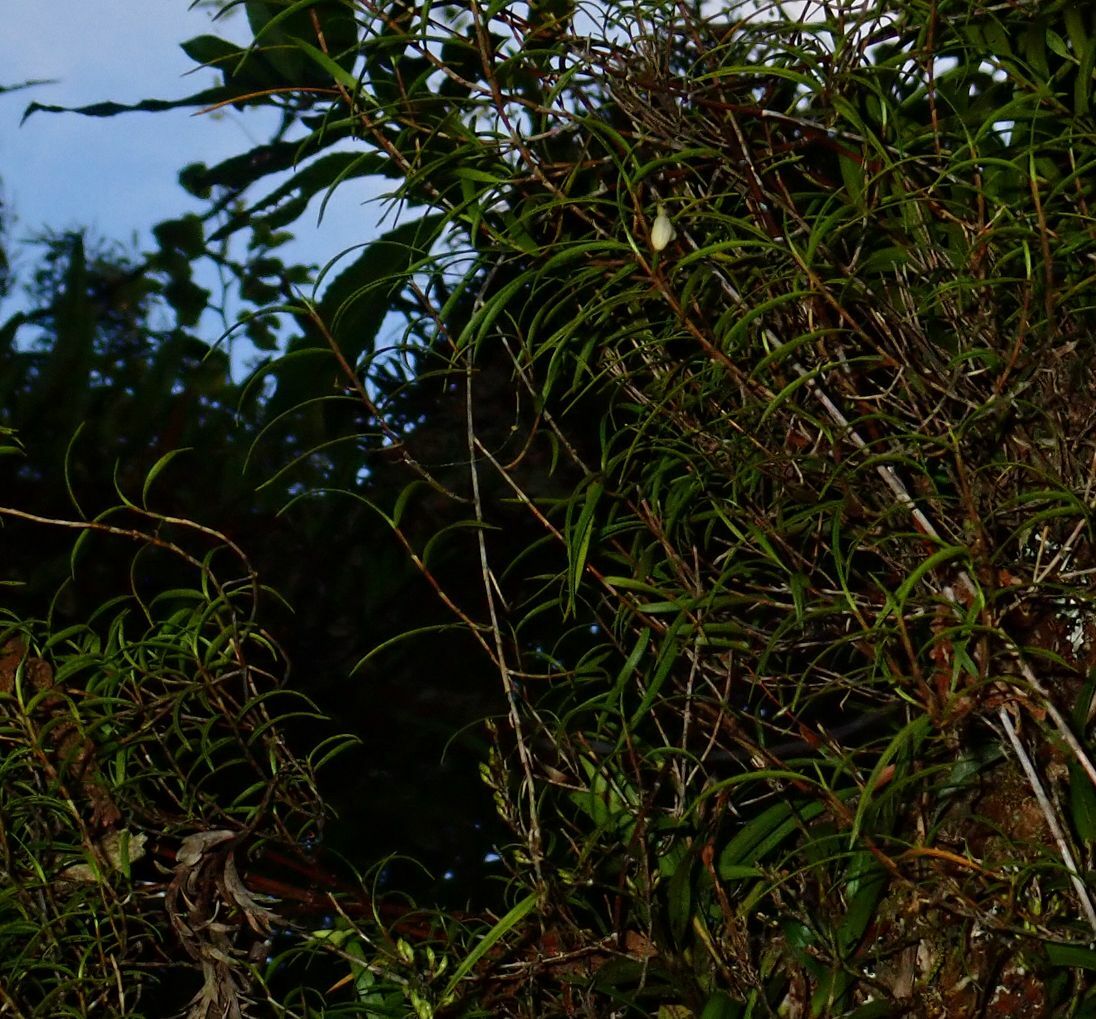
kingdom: Plantae
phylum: Tracheophyta
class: Liliopsida
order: Asparagales
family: Orchidaceae
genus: Dendrobium
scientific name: Dendrobium cunninghamii
